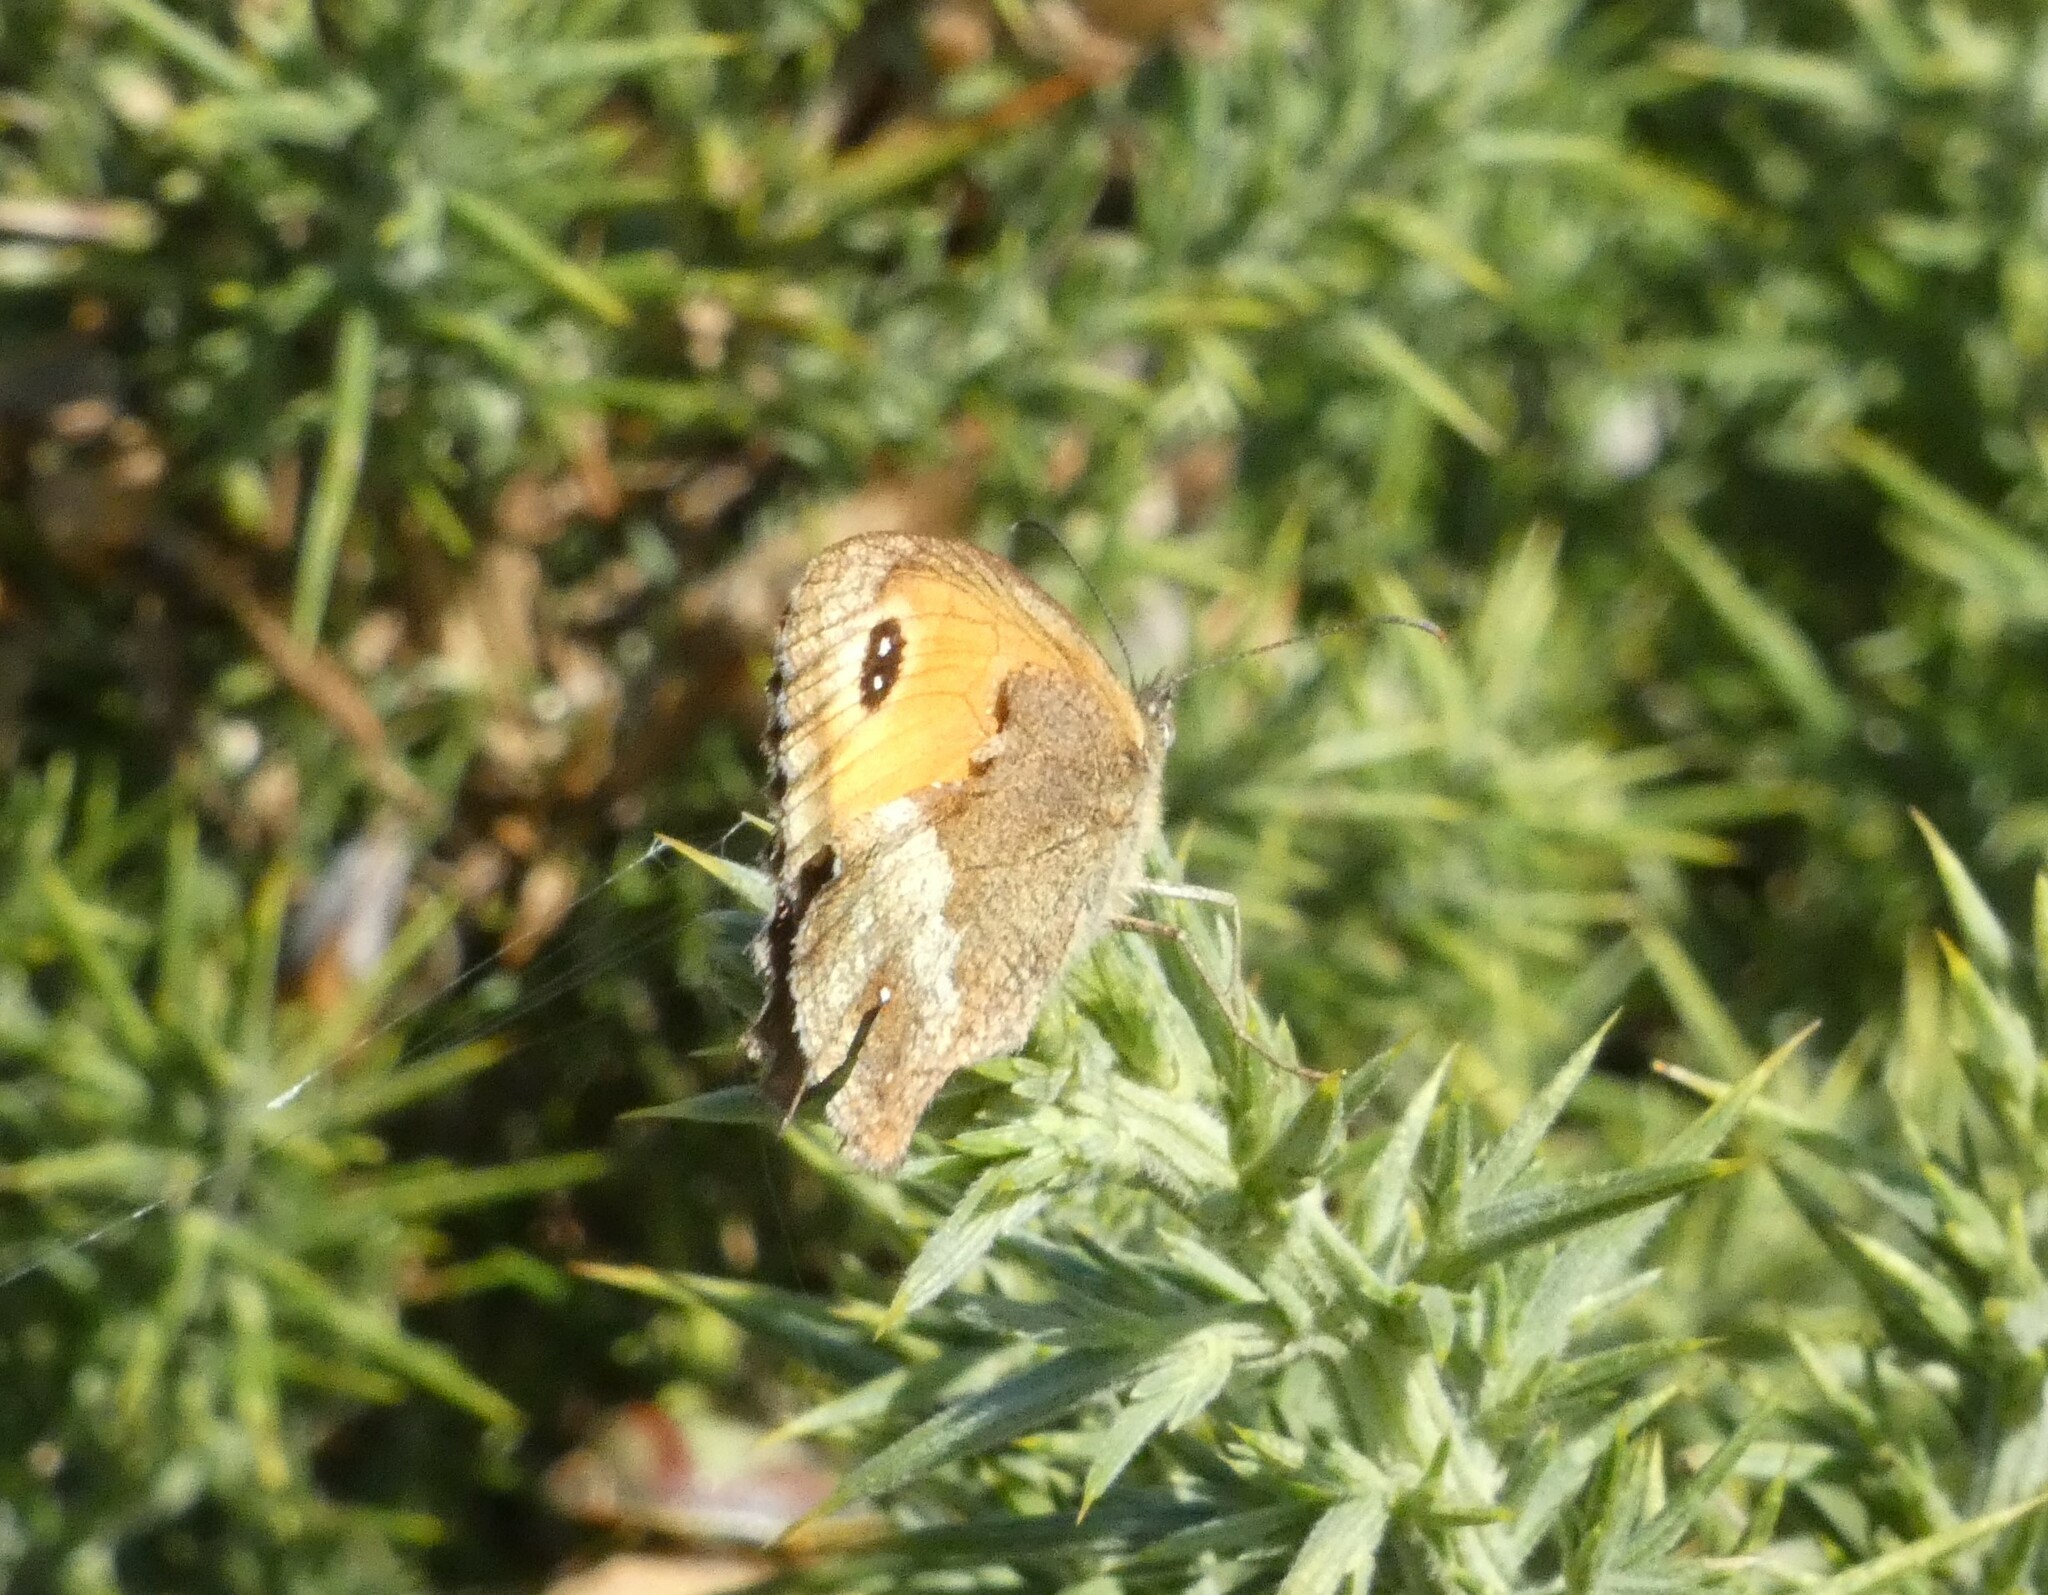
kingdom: Animalia
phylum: Arthropoda
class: Insecta
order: Lepidoptera
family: Nymphalidae
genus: Pyronia
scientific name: Pyronia tithonus
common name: Gatekeeper
